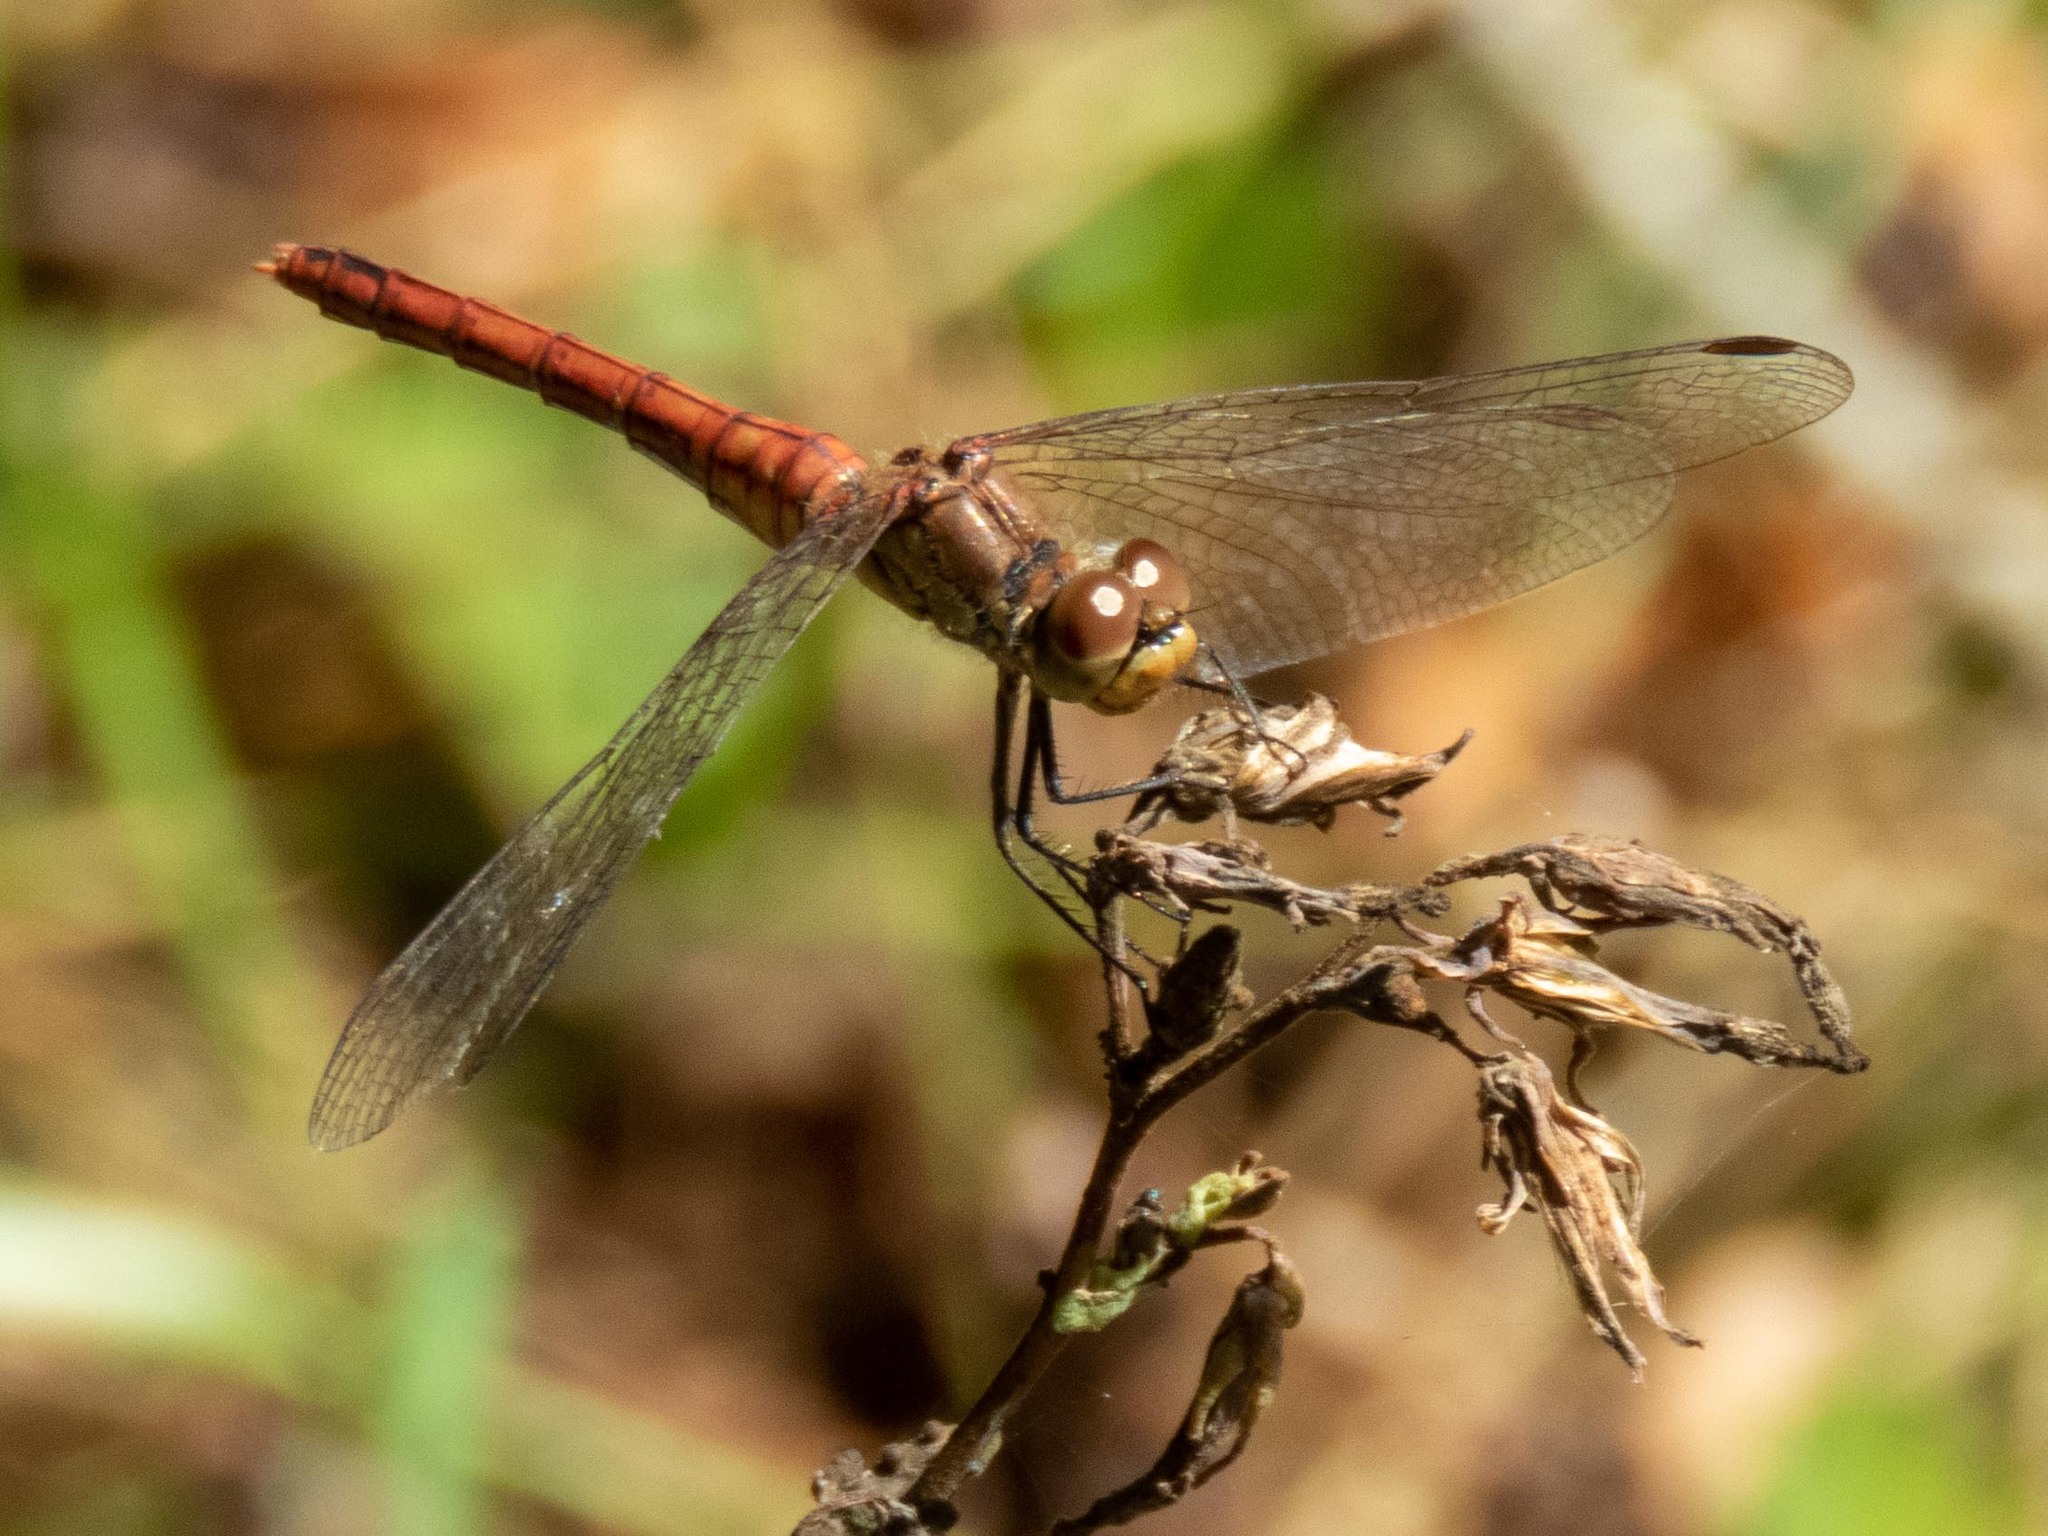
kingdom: Animalia
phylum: Arthropoda
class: Insecta
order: Odonata
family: Libellulidae
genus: Sympetrum
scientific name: Sympetrum sanguineum
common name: Ruddy darter
